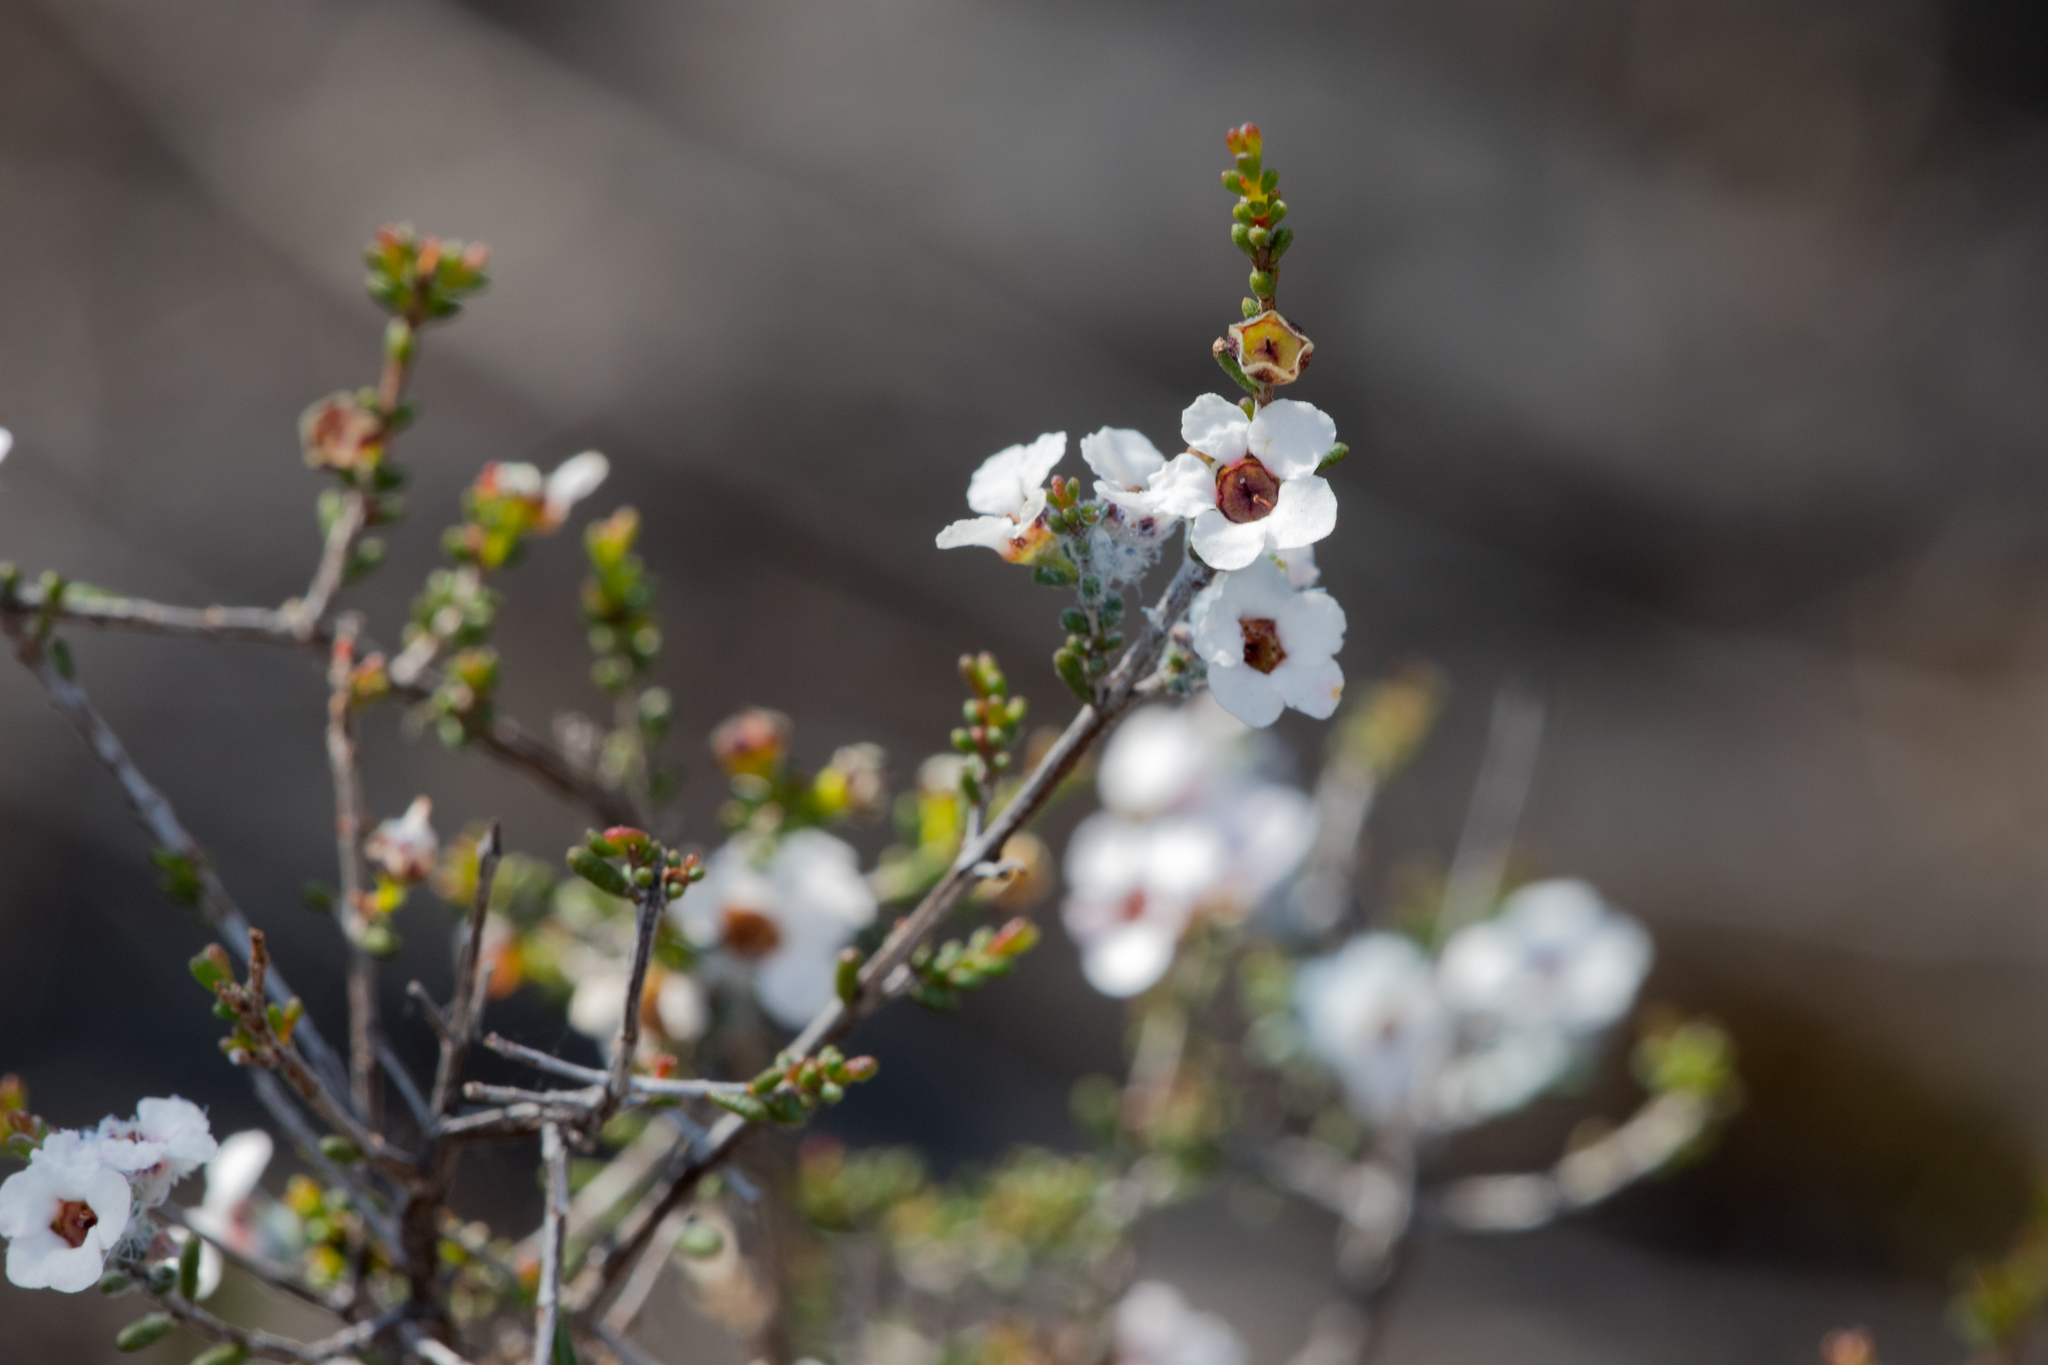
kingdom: Plantae
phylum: Tracheophyta
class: Magnoliopsida
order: Myrtales
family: Myrtaceae
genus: Rinzia
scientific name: Rinzia orientalis
